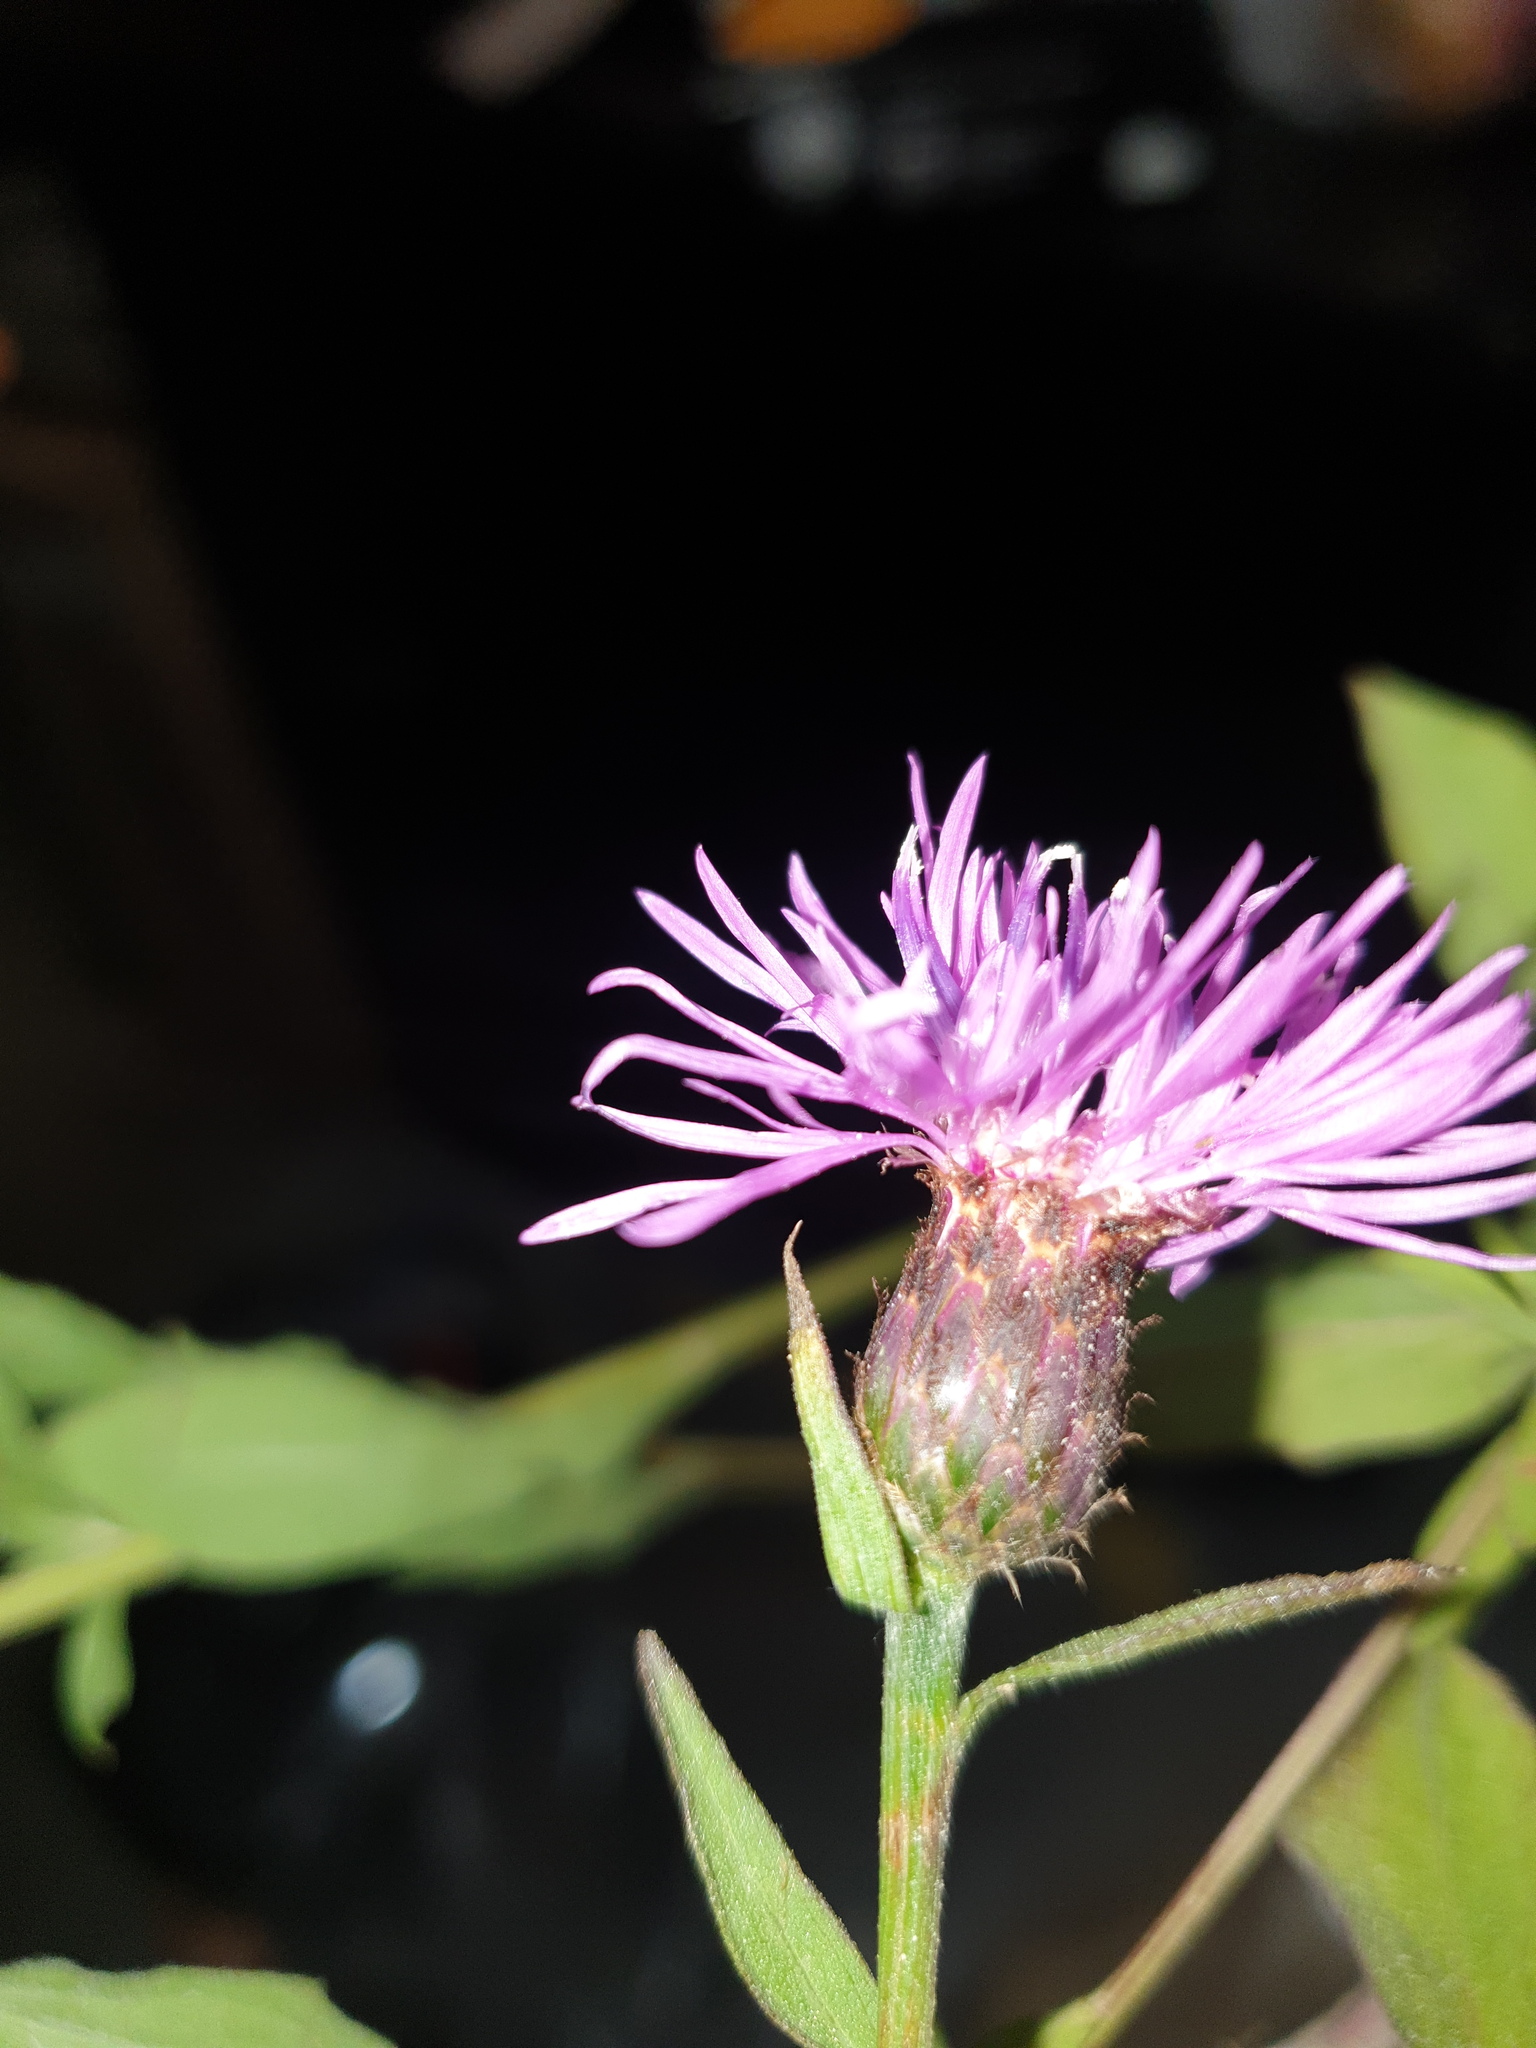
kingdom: Plantae
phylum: Tracheophyta
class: Magnoliopsida
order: Asterales
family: Asteraceae
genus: Centaurea
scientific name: Centaurea nigrescens
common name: Tyrol knapweed
